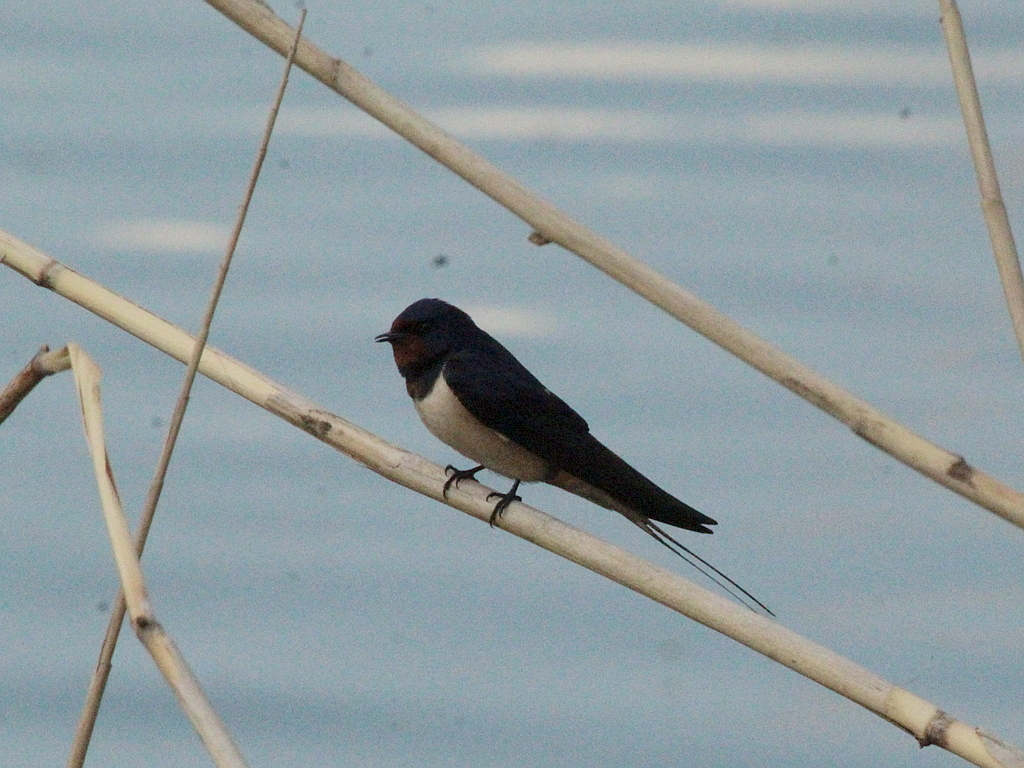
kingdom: Animalia
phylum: Chordata
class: Aves
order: Passeriformes
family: Hirundinidae
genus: Hirundo
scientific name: Hirundo rustica
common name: Barn swallow
